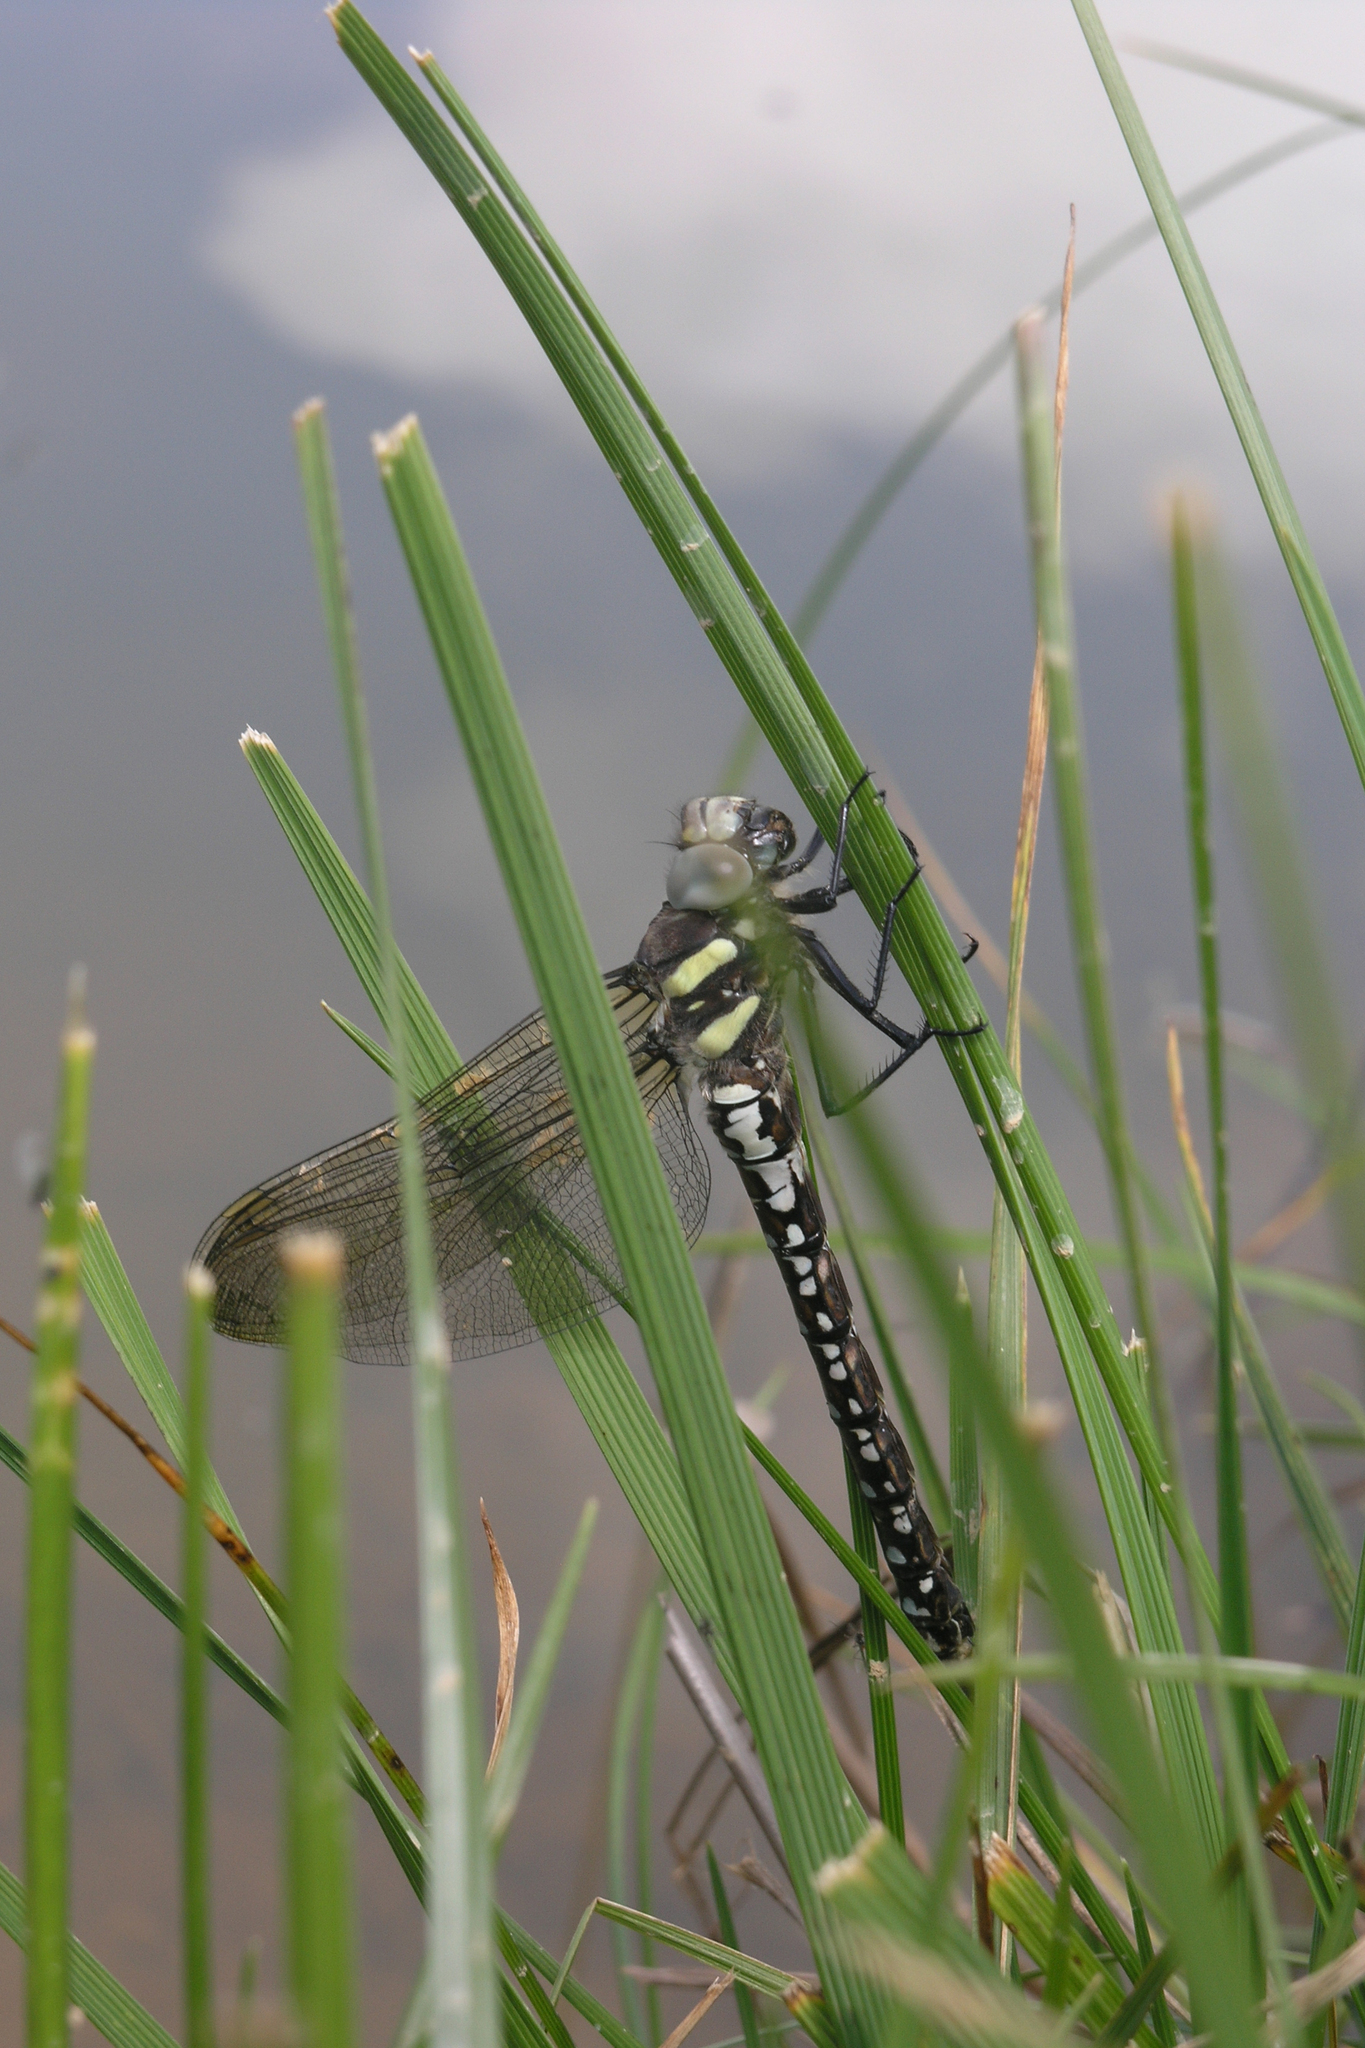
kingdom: Animalia
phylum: Arthropoda
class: Insecta
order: Odonata
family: Aeshnidae
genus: Aeshna
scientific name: Aeshna juncea
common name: Moorland hawker
